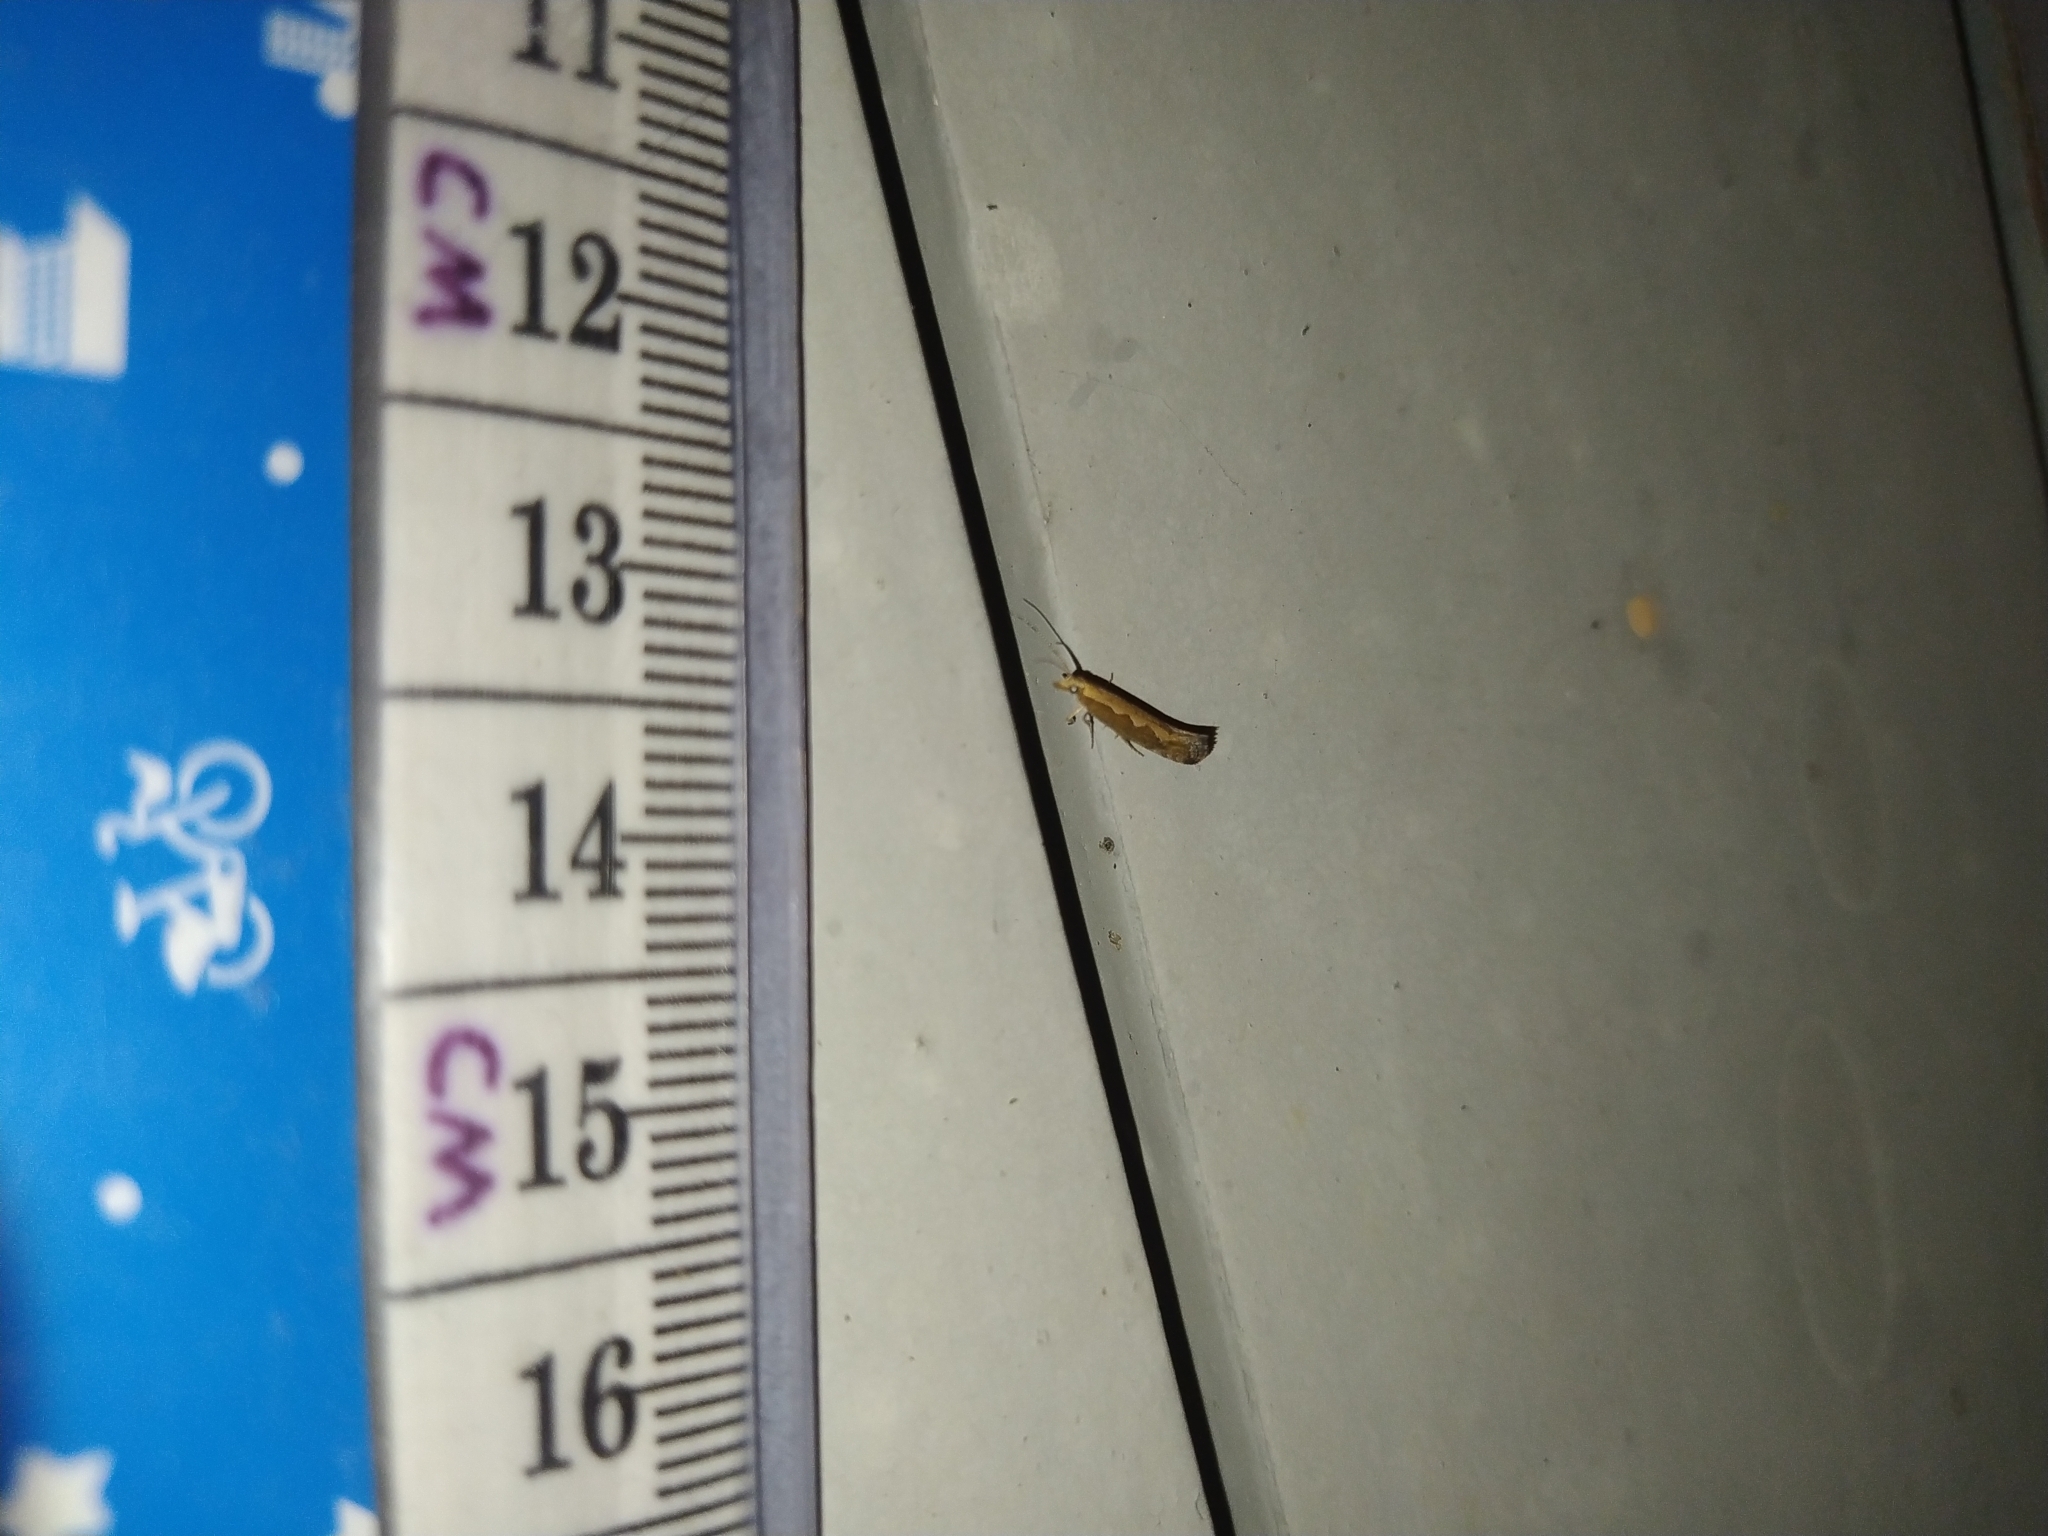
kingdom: Animalia
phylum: Arthropoda
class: Insecta
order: Lepidoptera
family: Plutellidae
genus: Plutella
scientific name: Plutella xylostella
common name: Diamond-back moth
